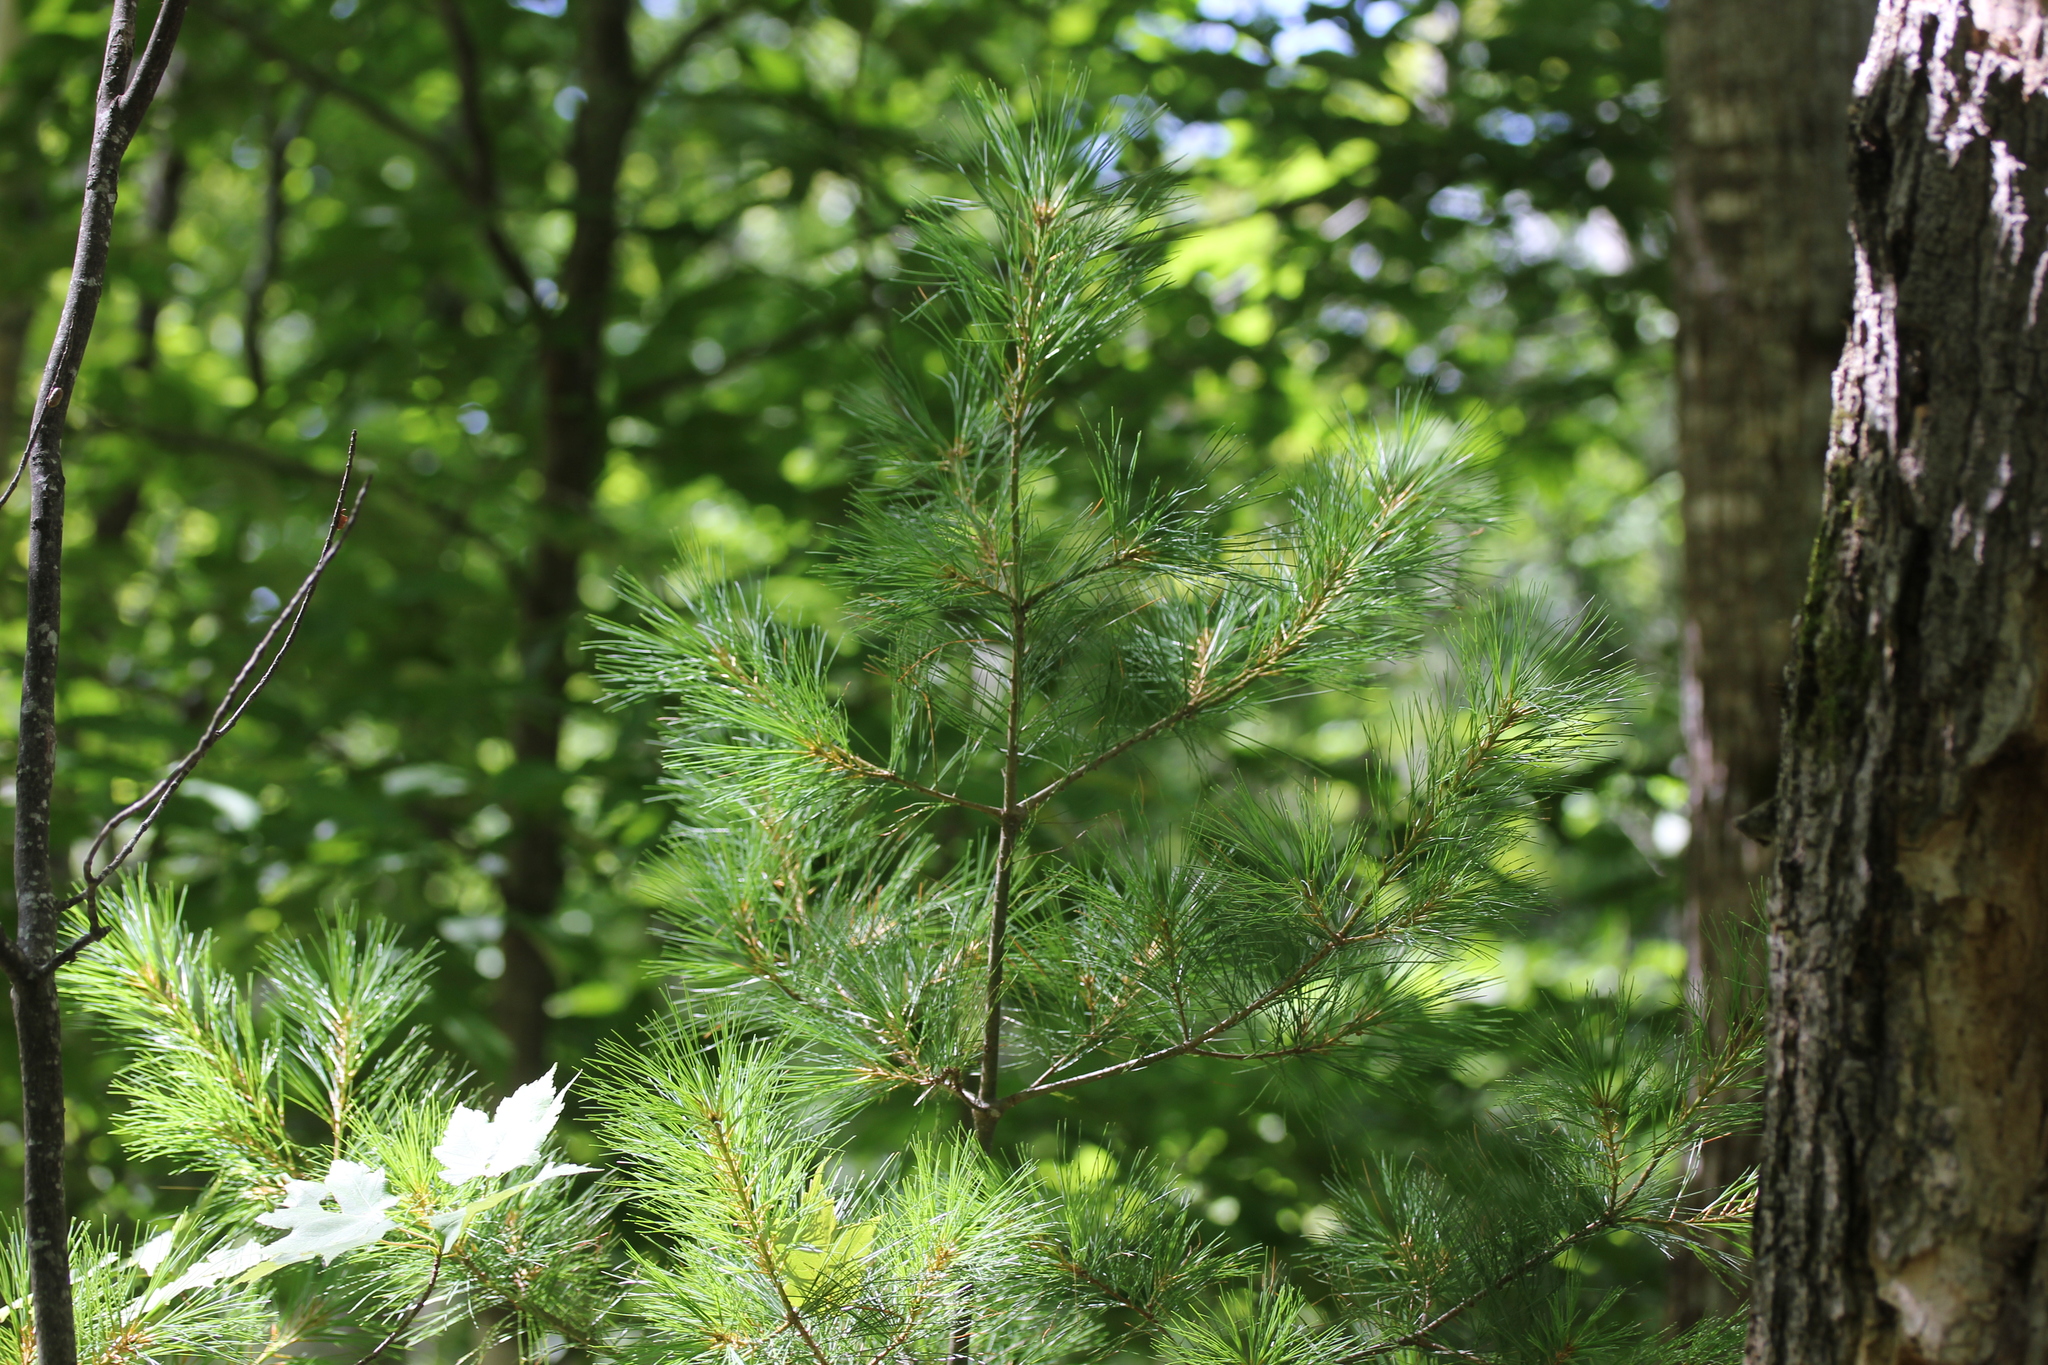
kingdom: Plantae
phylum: Tracheophyta
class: Pinopsida
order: Pinales
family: Pinaceae
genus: Pinus
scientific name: Pinus strobus
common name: Weymouth pine
